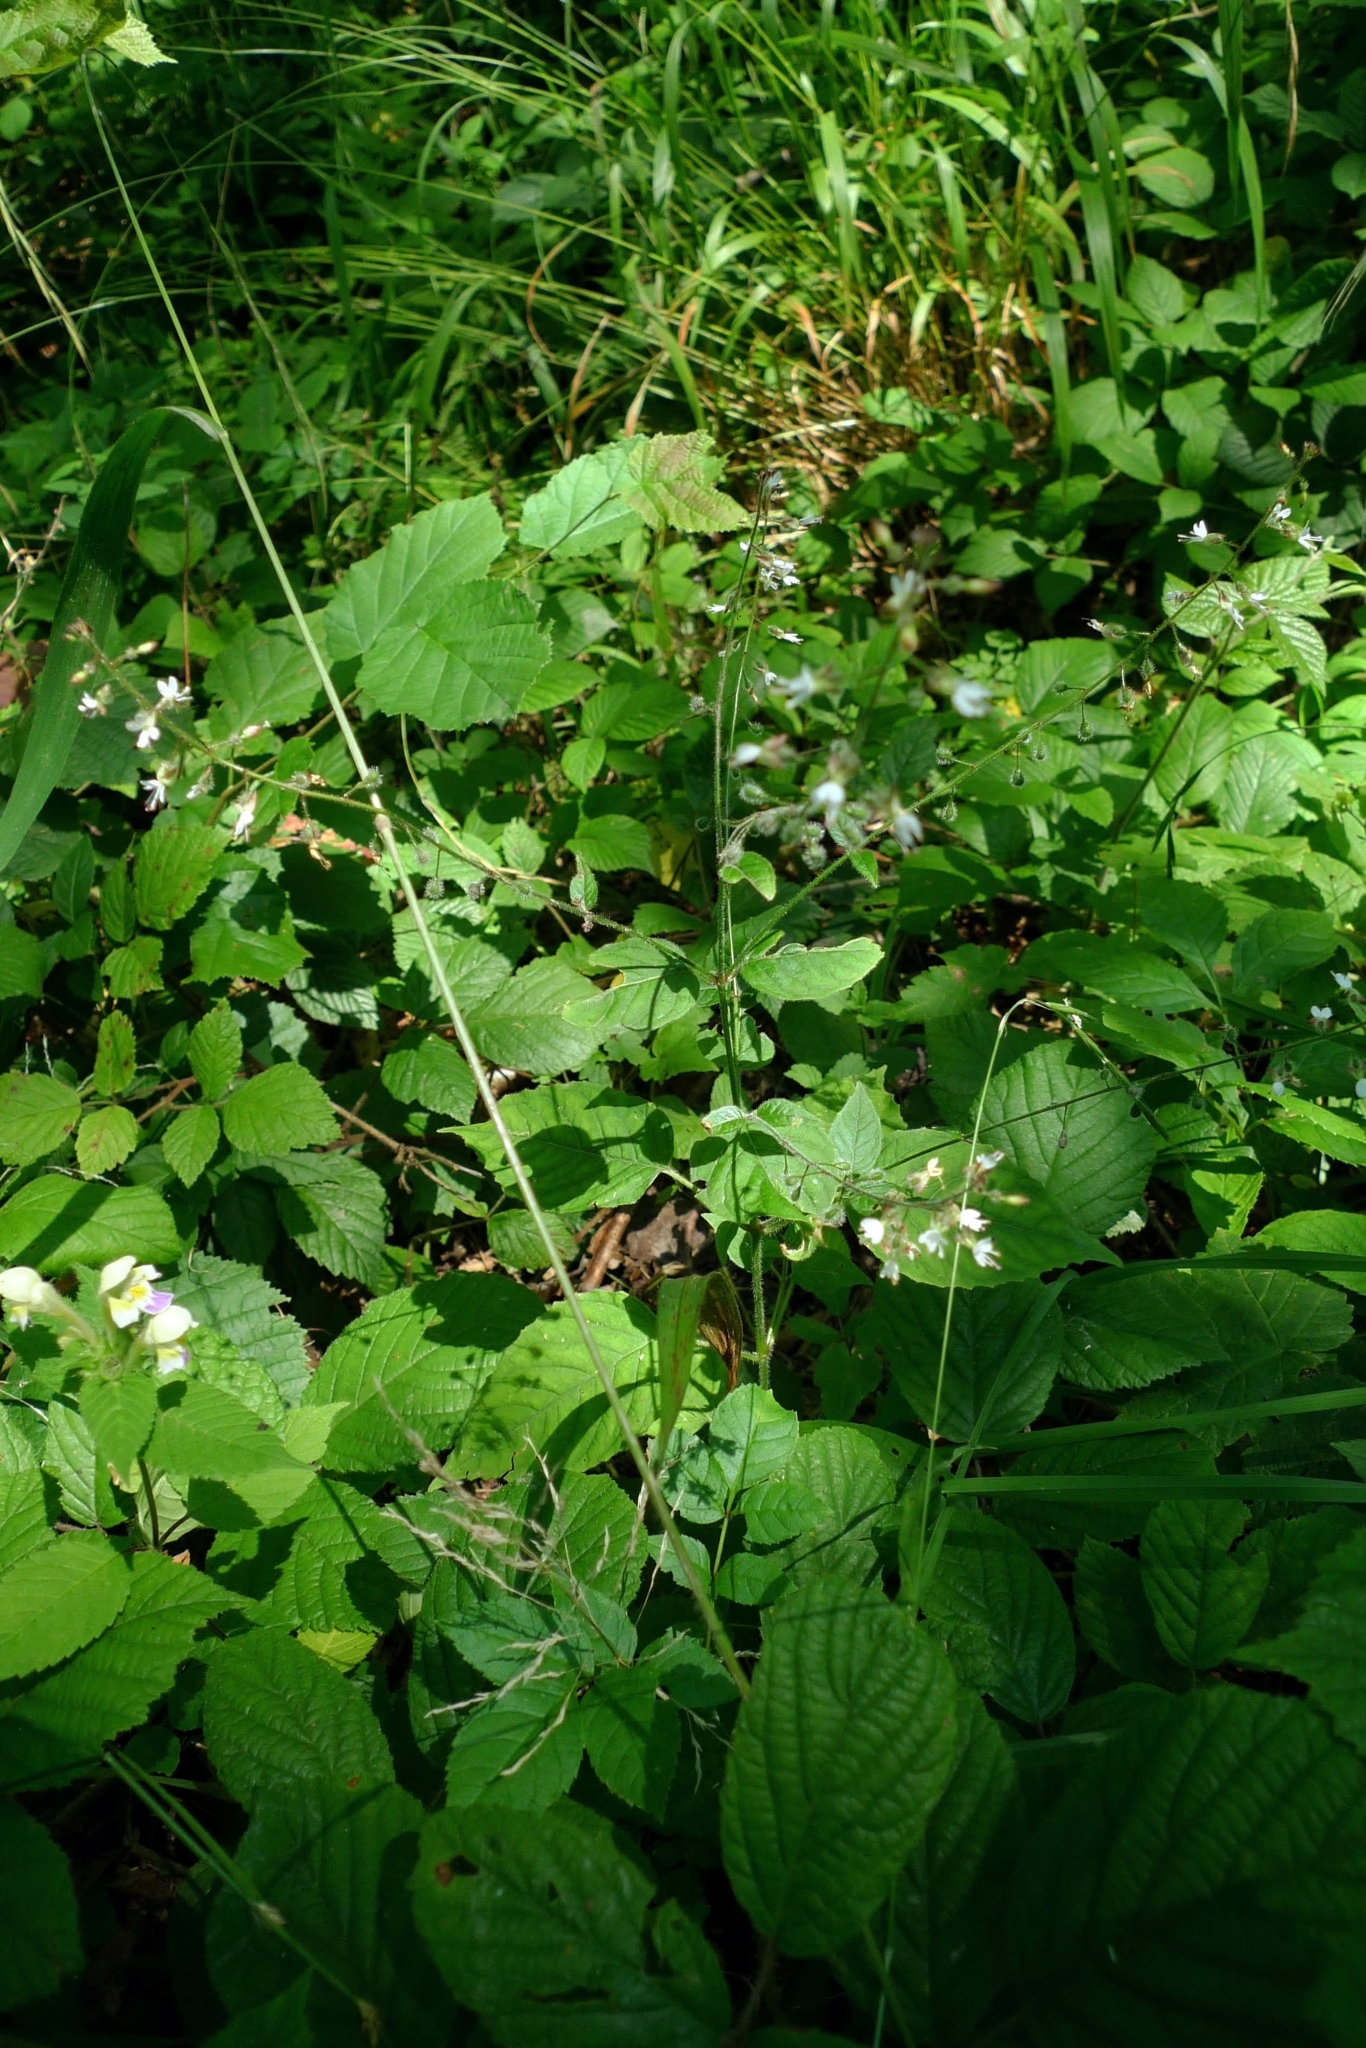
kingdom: Plantae
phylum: Tracheophyta
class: Magnoliopsida
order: Myrtales
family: Onagraceae
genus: Circaea
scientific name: Circaea lutetiana
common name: Enchanter's-nightshade
